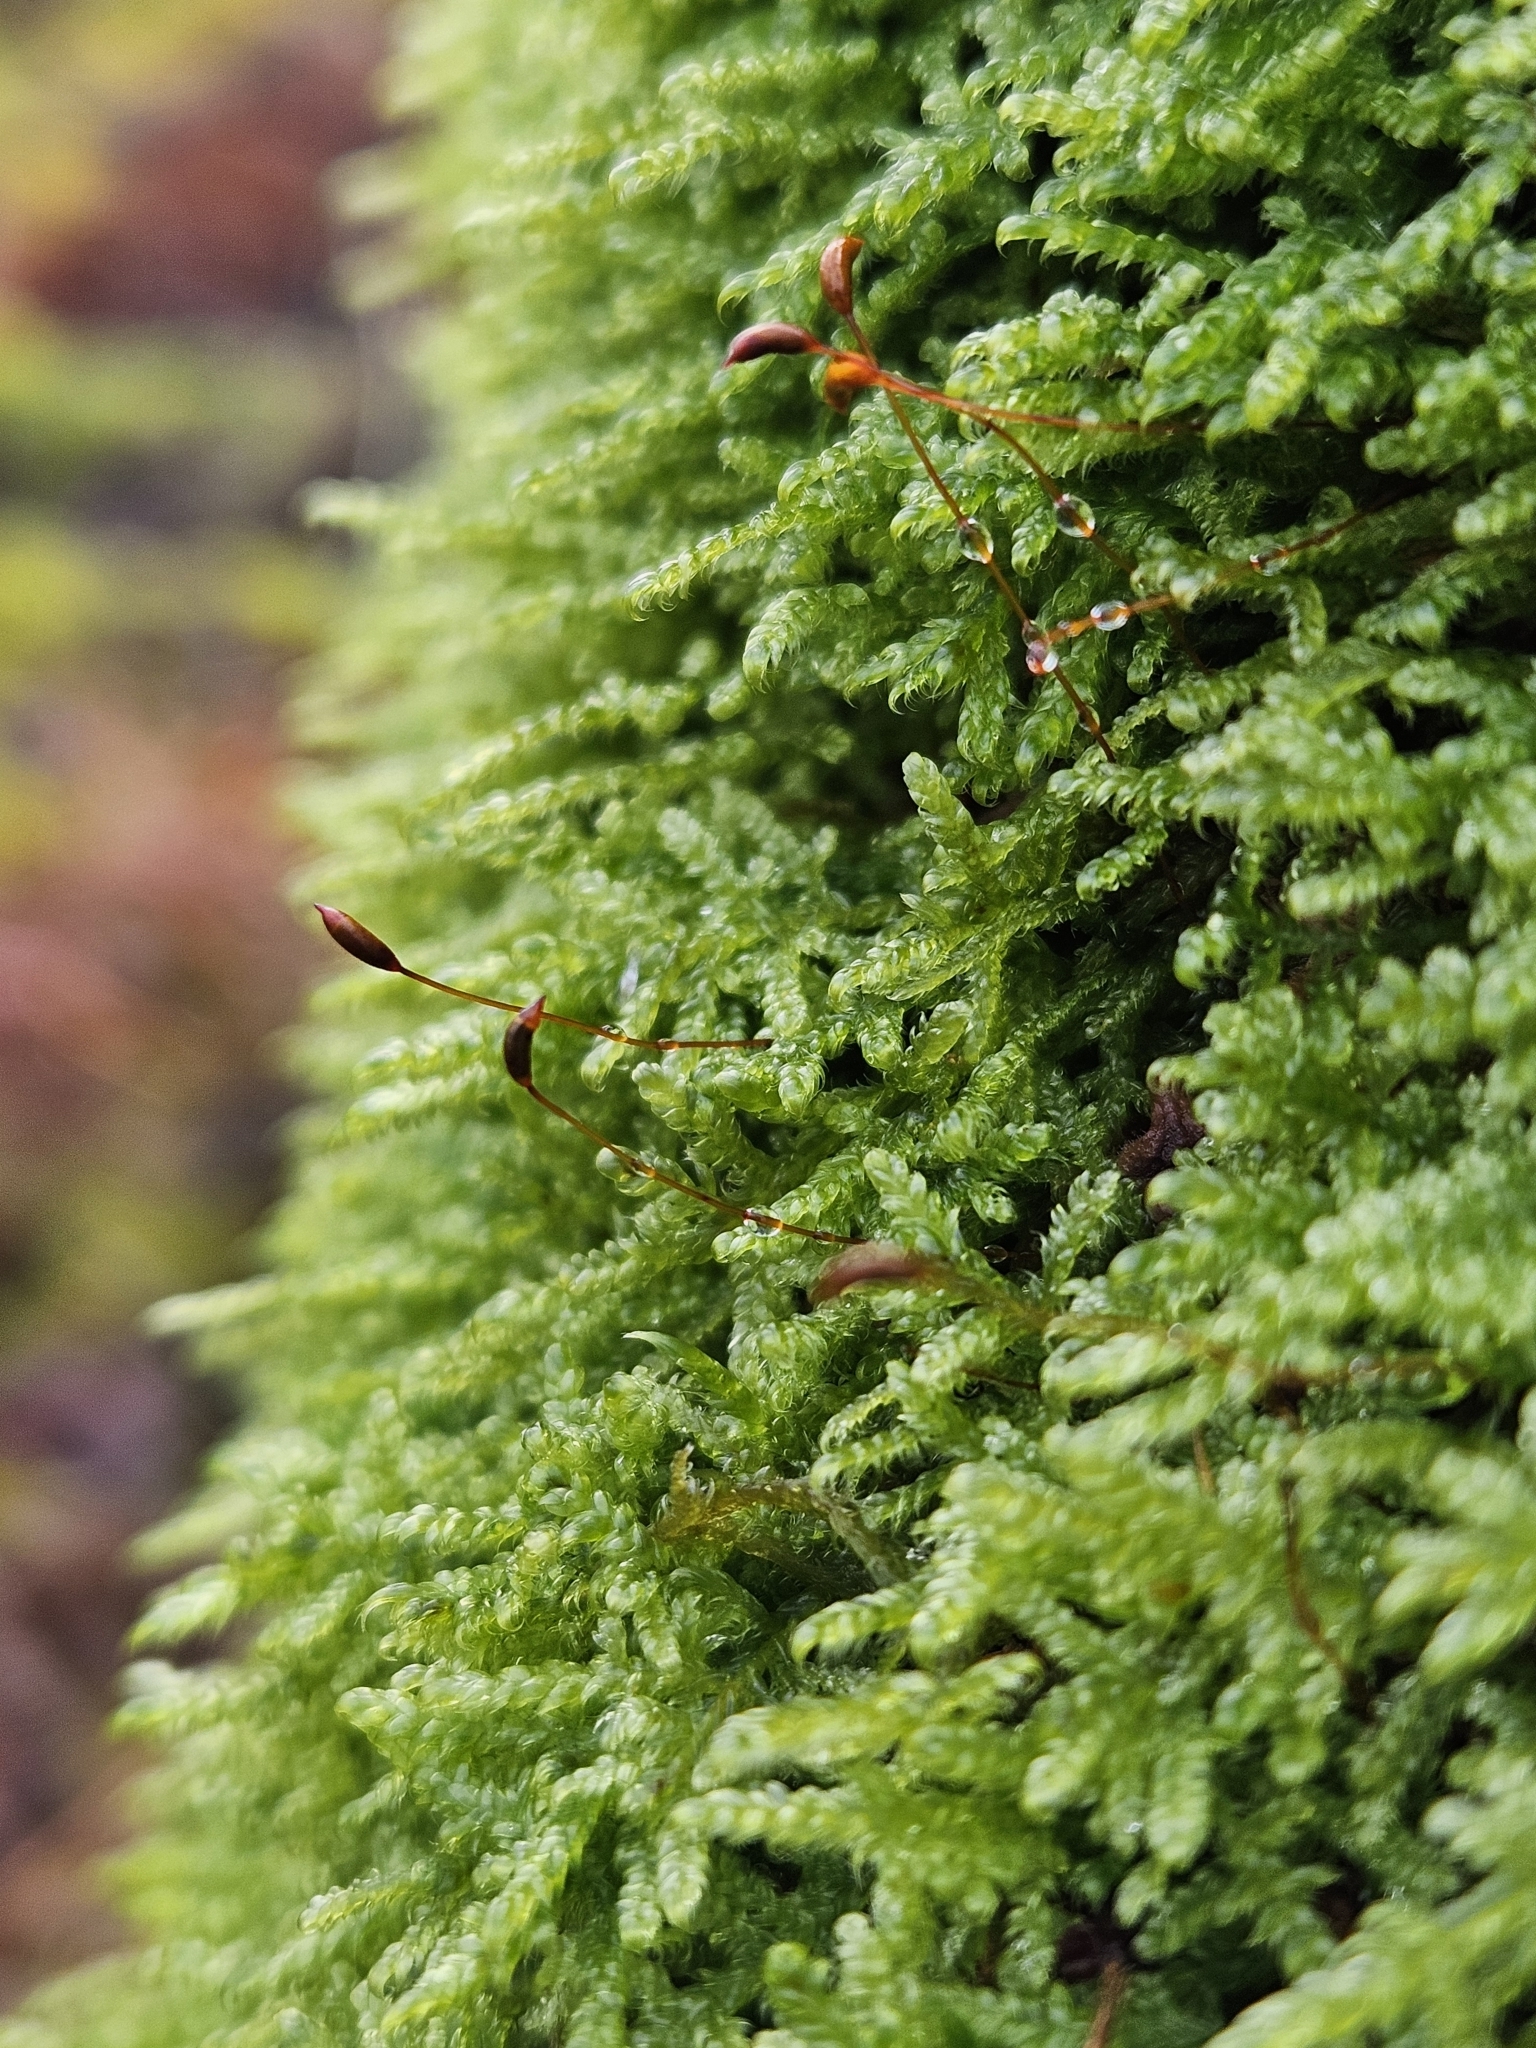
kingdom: Plantae
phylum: Bryophyta
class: Bryopsida
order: Hypnales
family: Hypnaceae
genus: Hypnum
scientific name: Hypnum cupressiforme
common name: Cypress-leaved plait-moss
